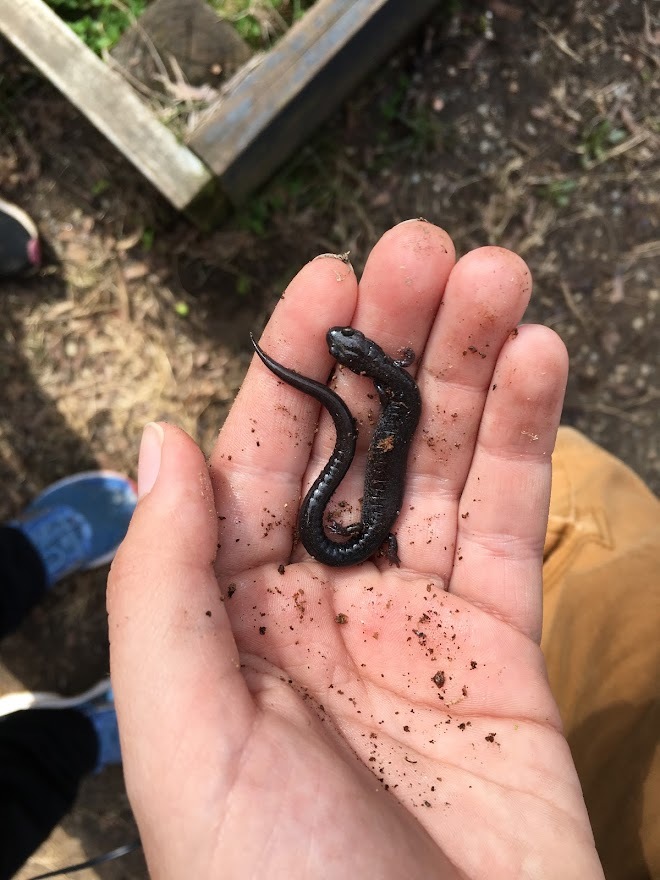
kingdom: Animalia
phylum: Chordata
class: Amphibia
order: Caudata
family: Plethodontidae
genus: Plethodon
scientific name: Plethodon cinereus
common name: Redback salamander
